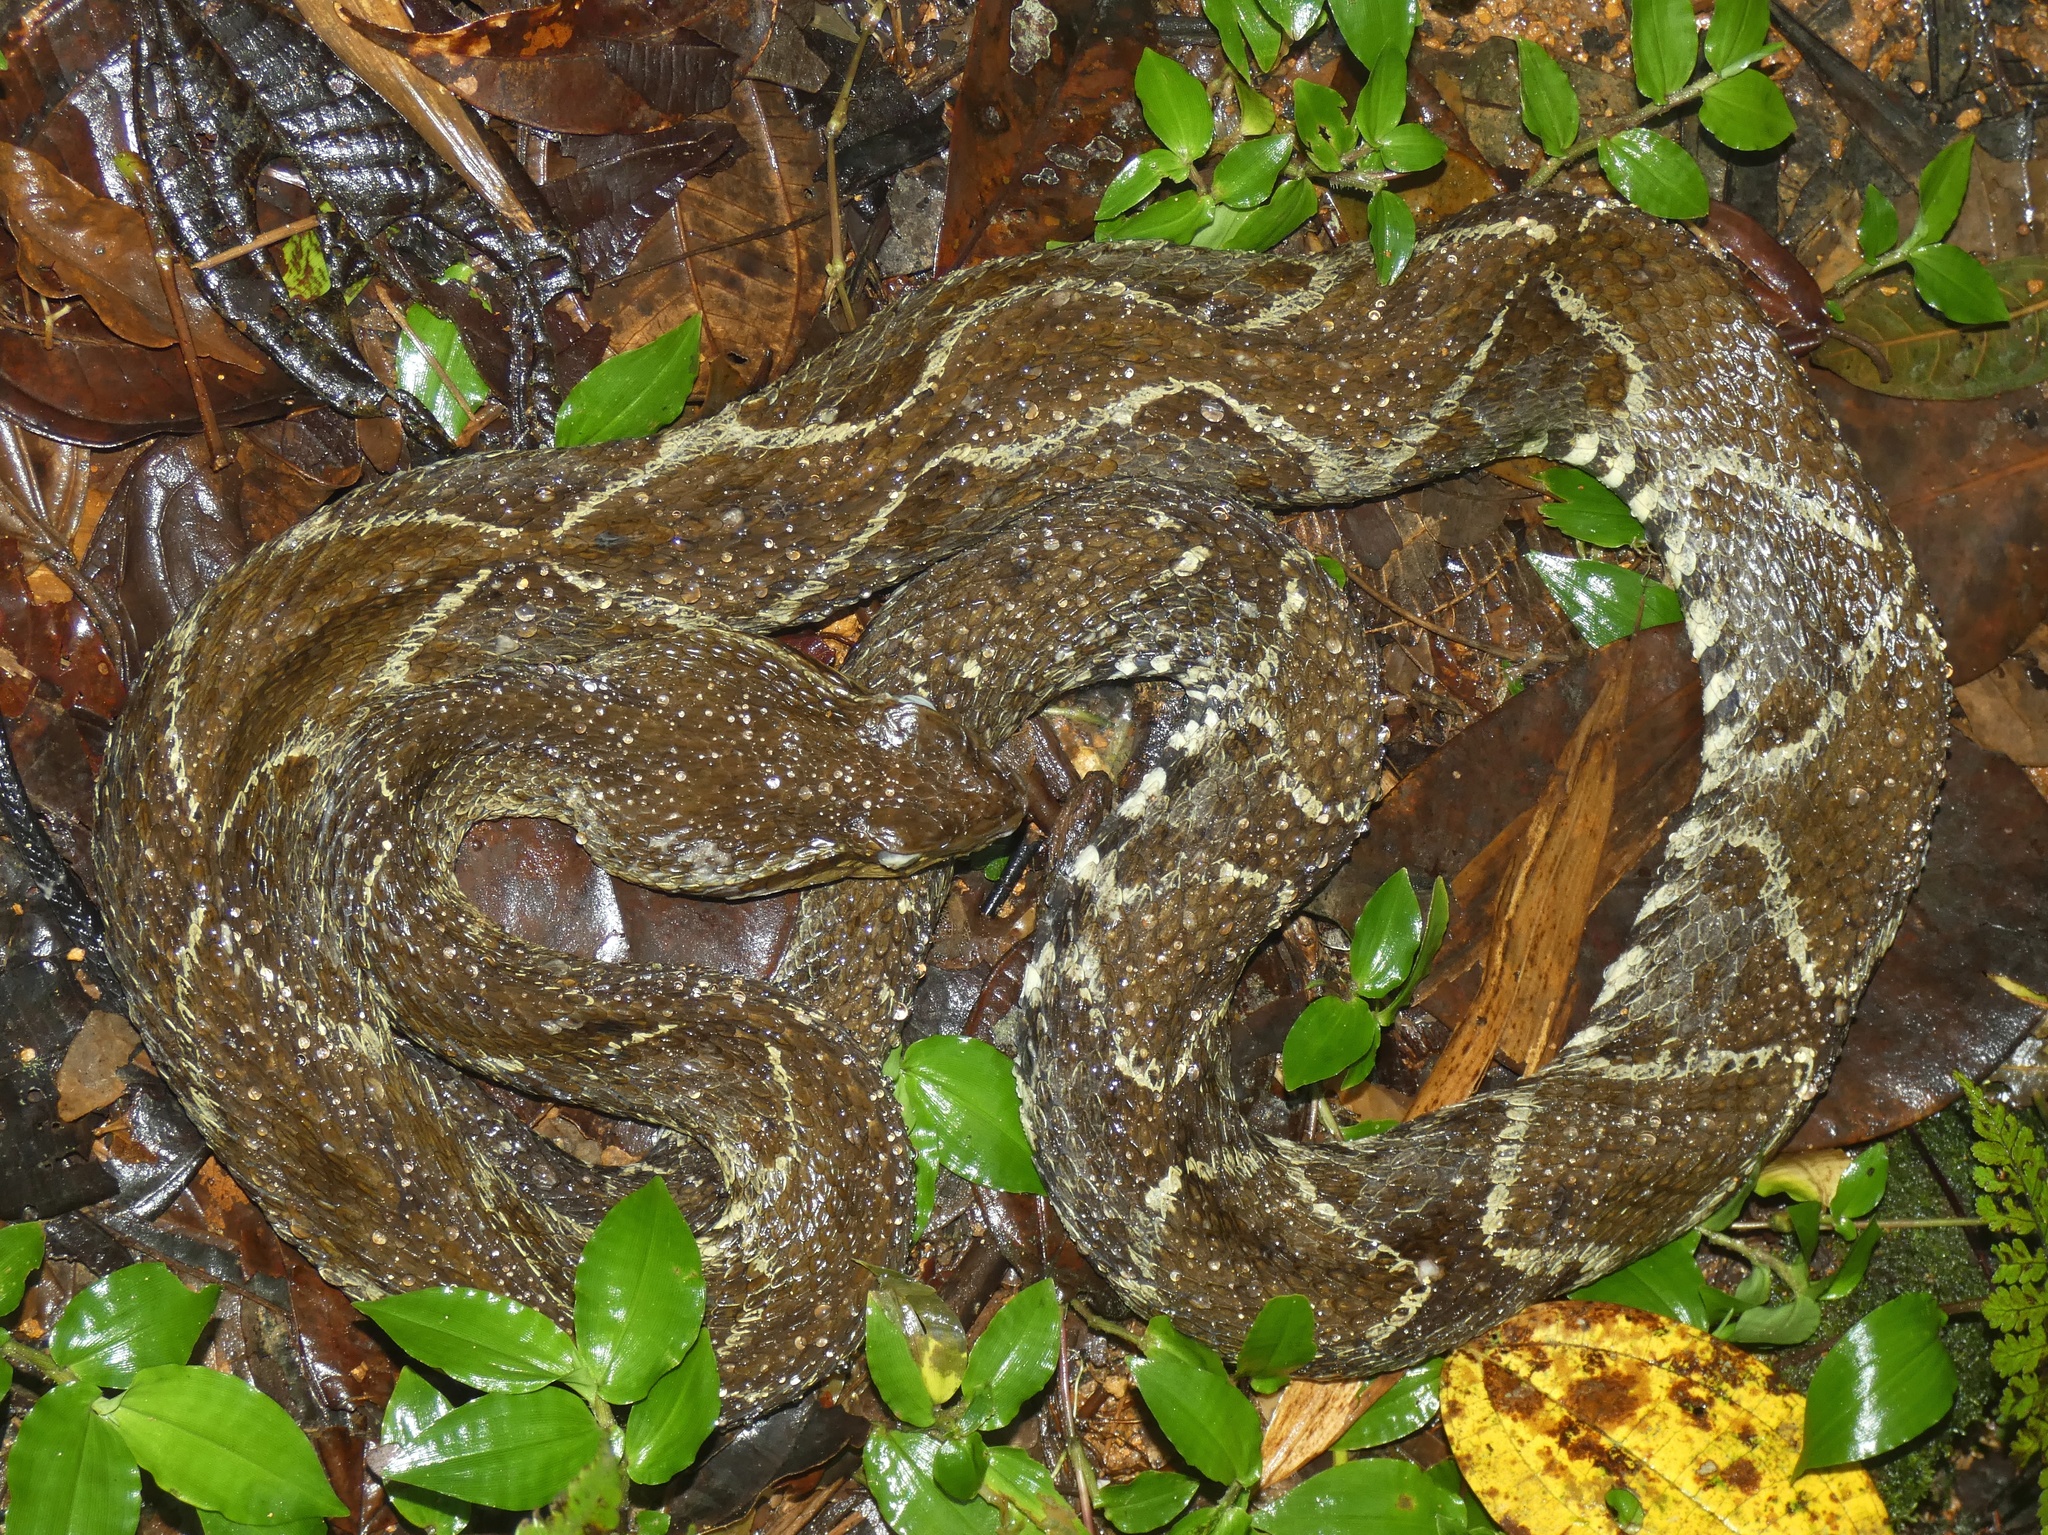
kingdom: Animalia
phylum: Chordata
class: Squamata
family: Viperidae
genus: Bothrops
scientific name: Bothrops asper
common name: Terciopelo
